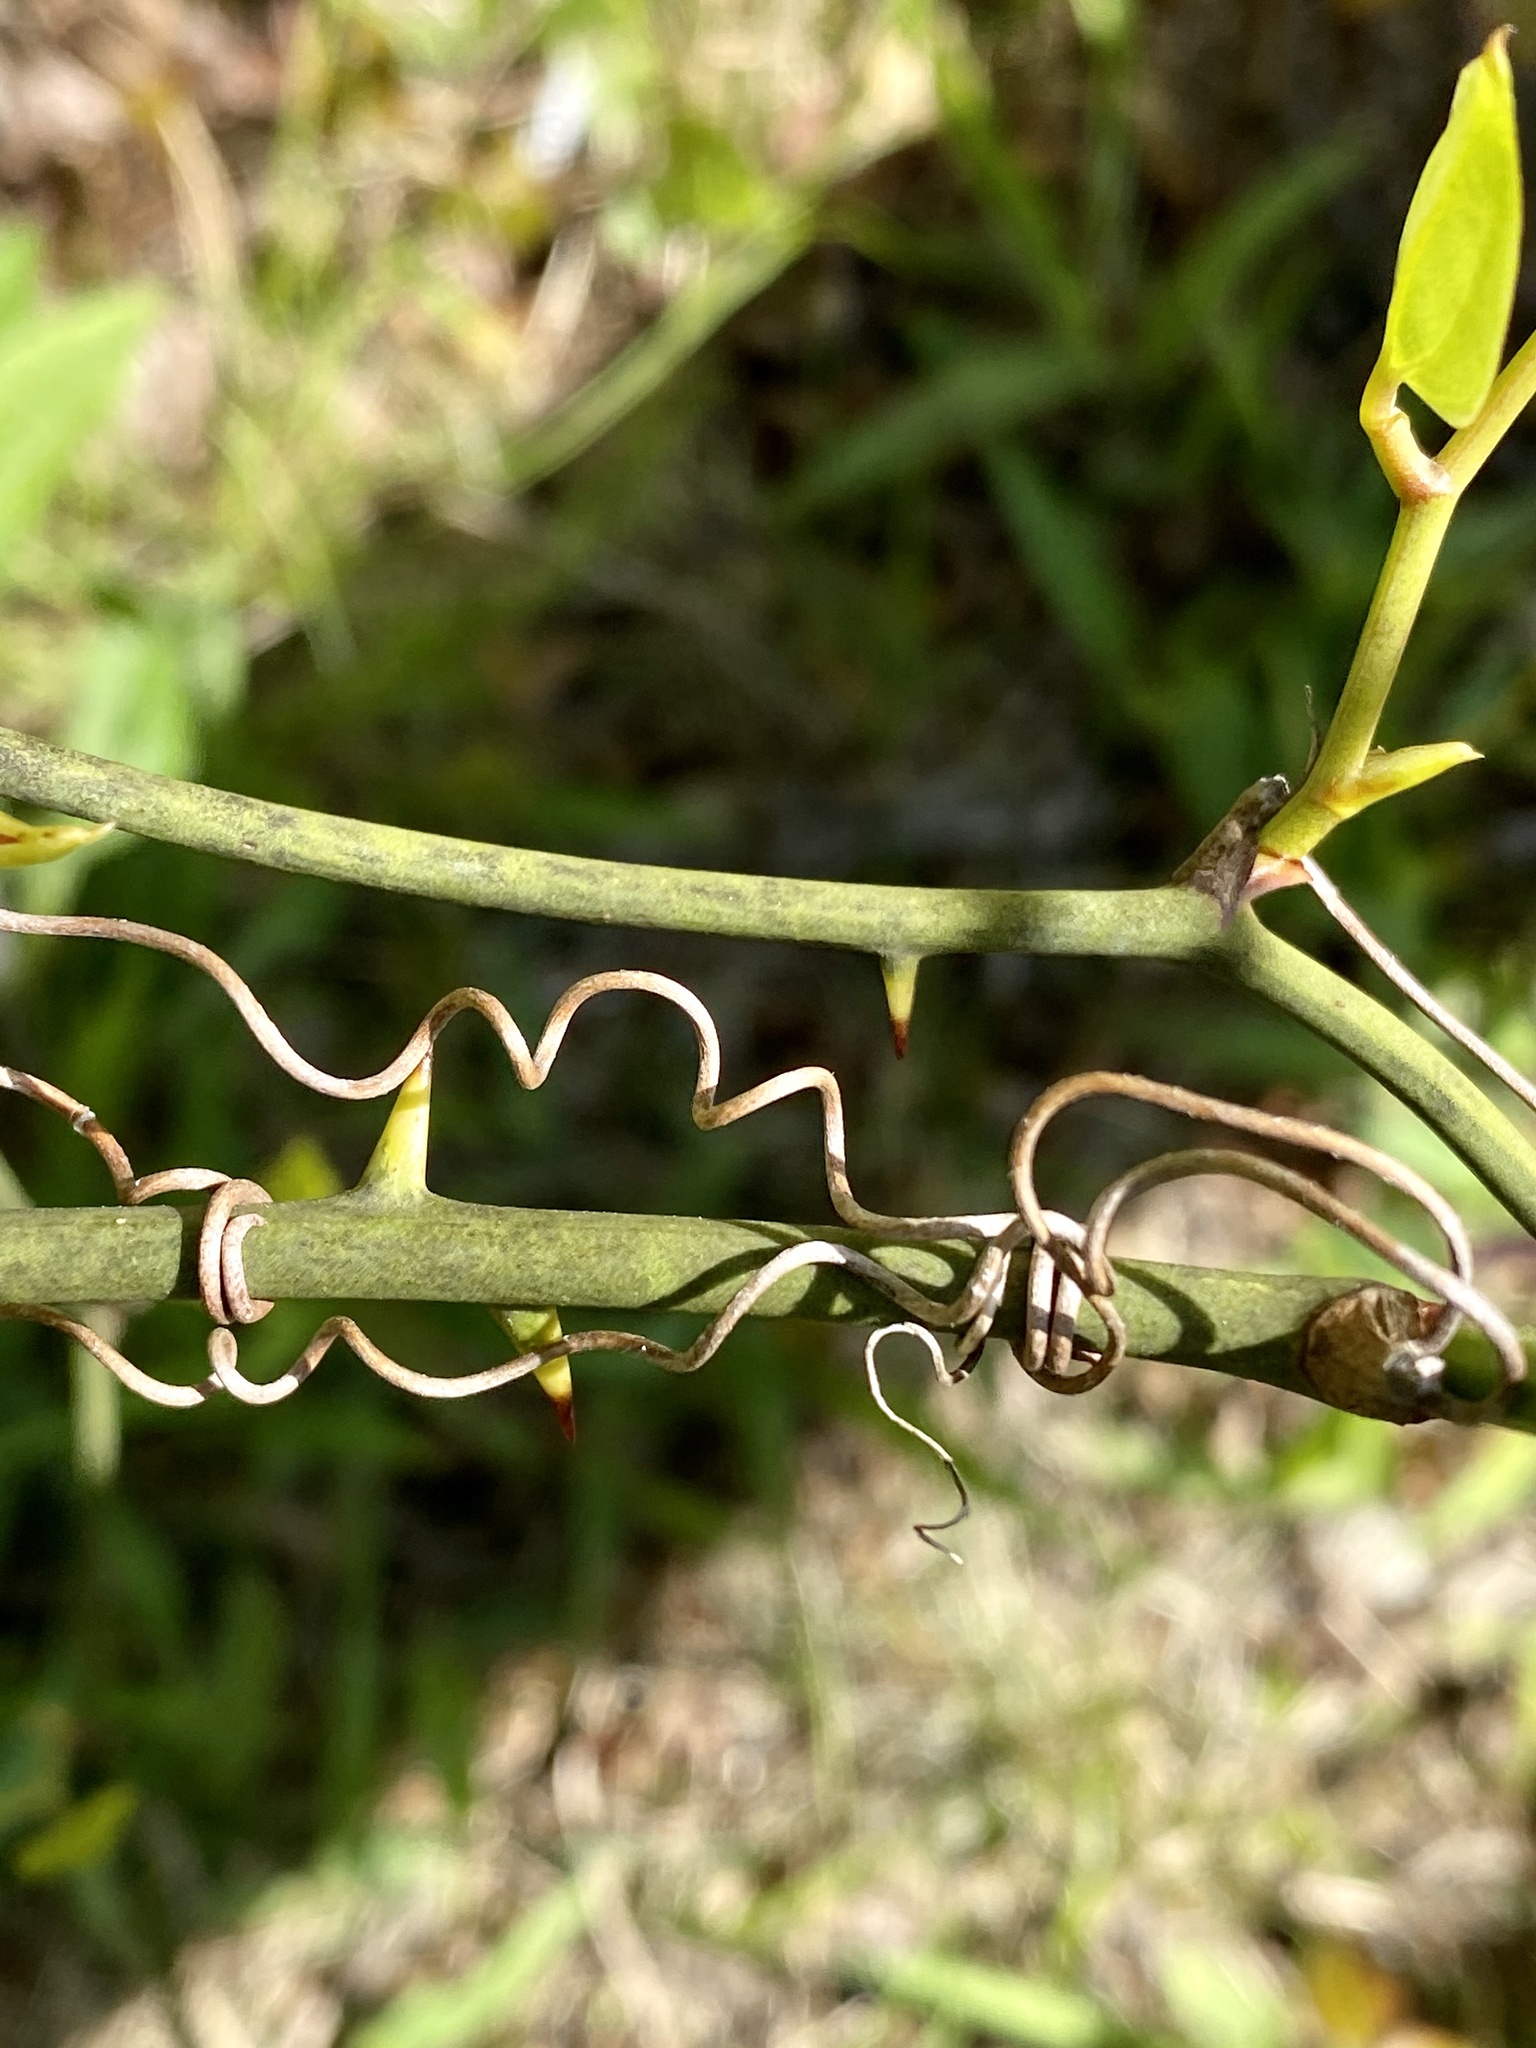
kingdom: Plantae
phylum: Tracheophyta
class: Liliopsida
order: Liliales
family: Smilacaceae
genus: Smilax
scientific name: Smilax rotundifolia
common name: Bullbriar
